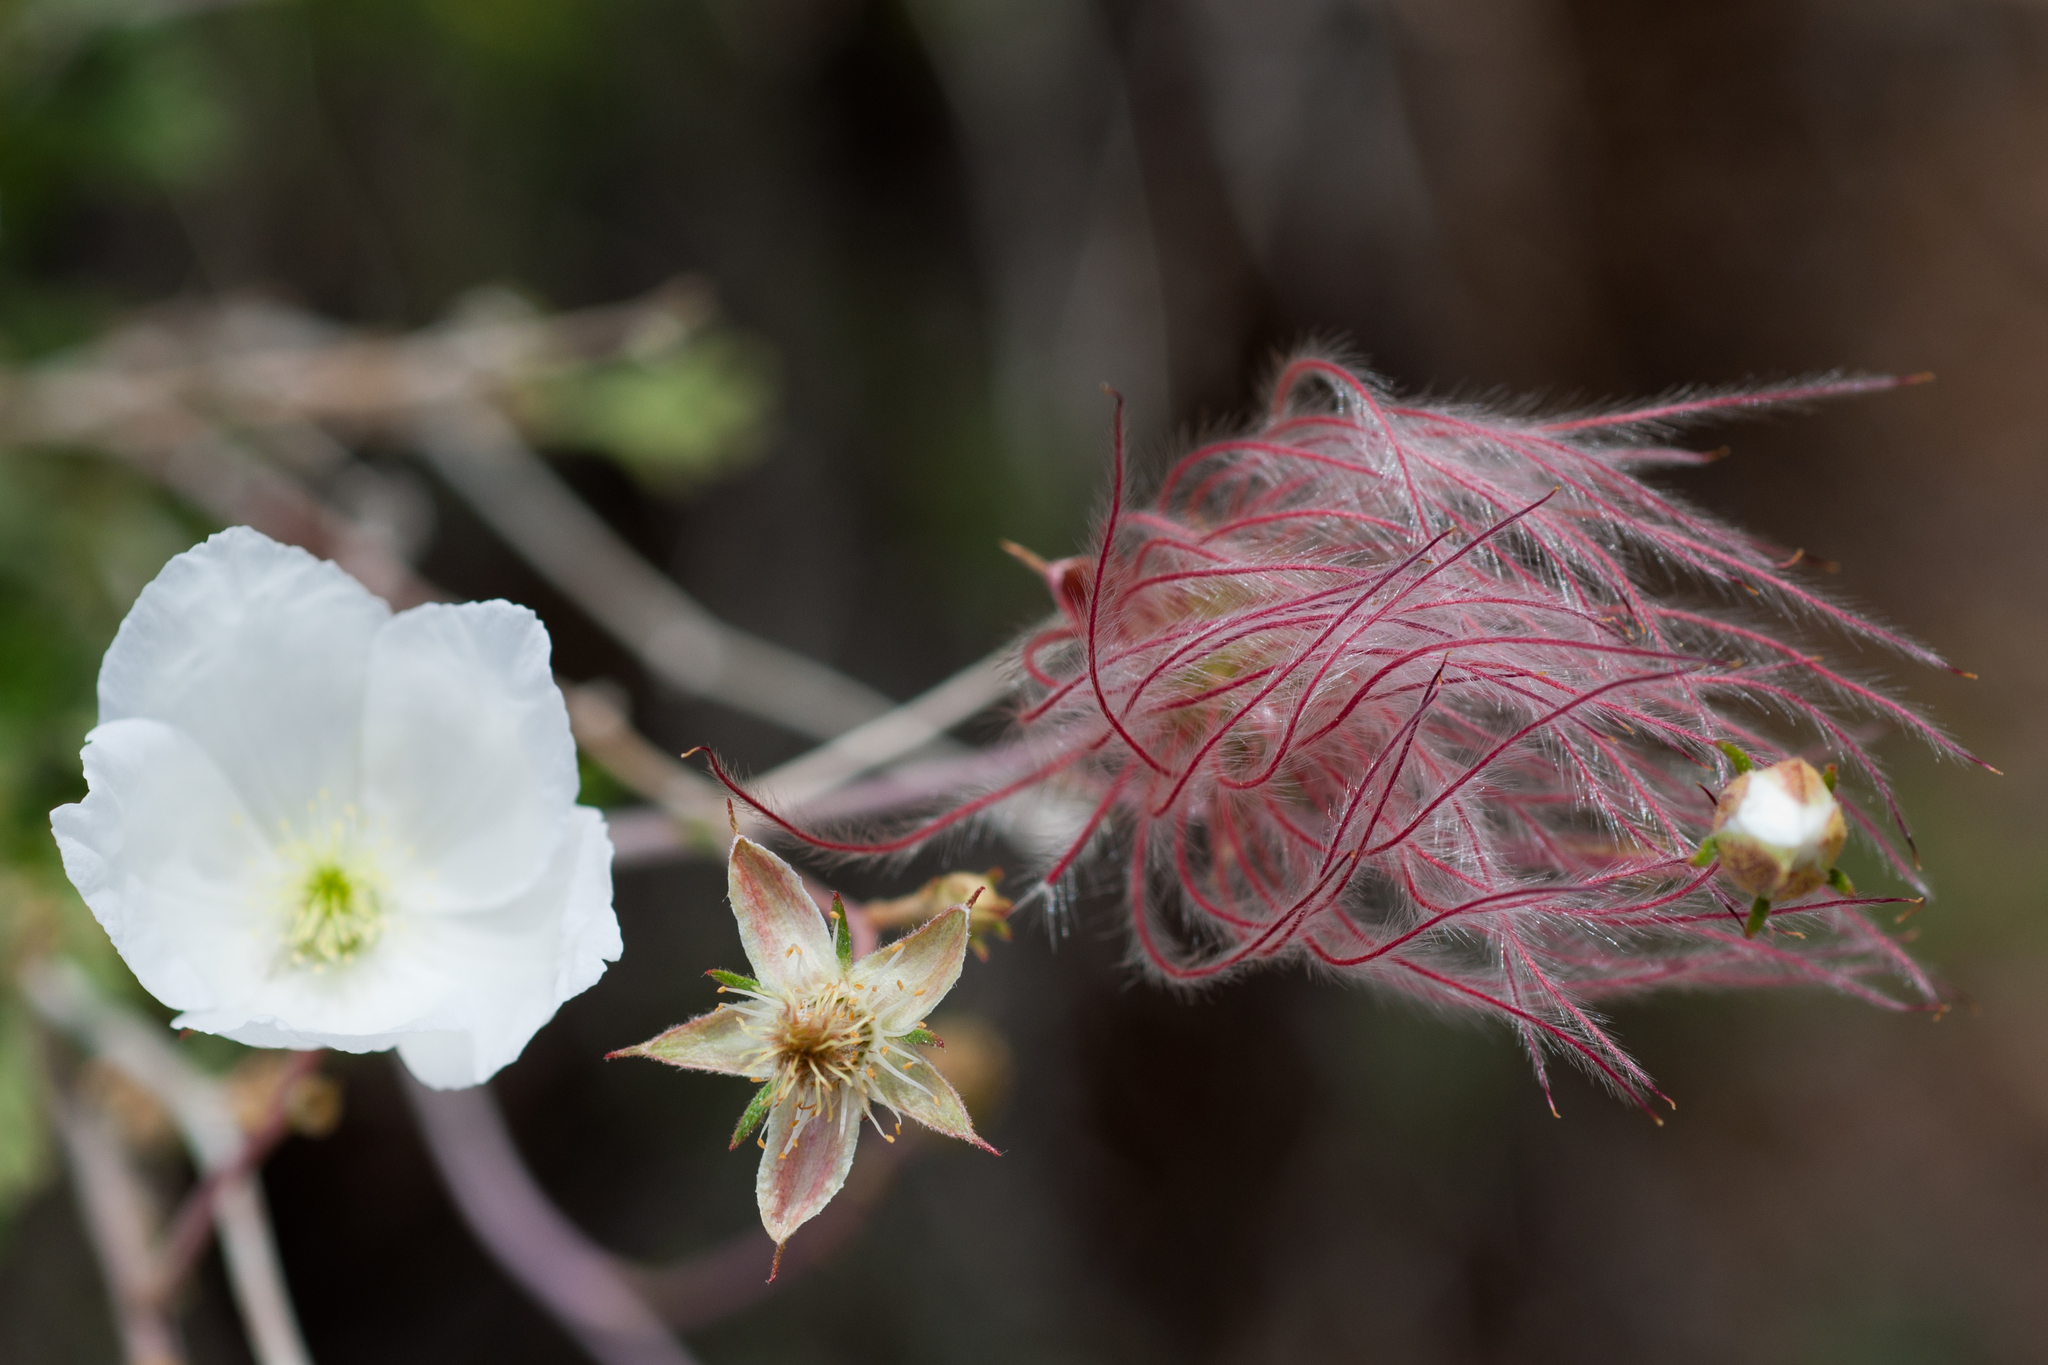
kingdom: Plantae
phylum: Tracheophyta
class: Magnoliopsida
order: Rosales
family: Rosaceae
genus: Fallugia
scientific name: Fallugia paradoxa
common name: Apache-plume
